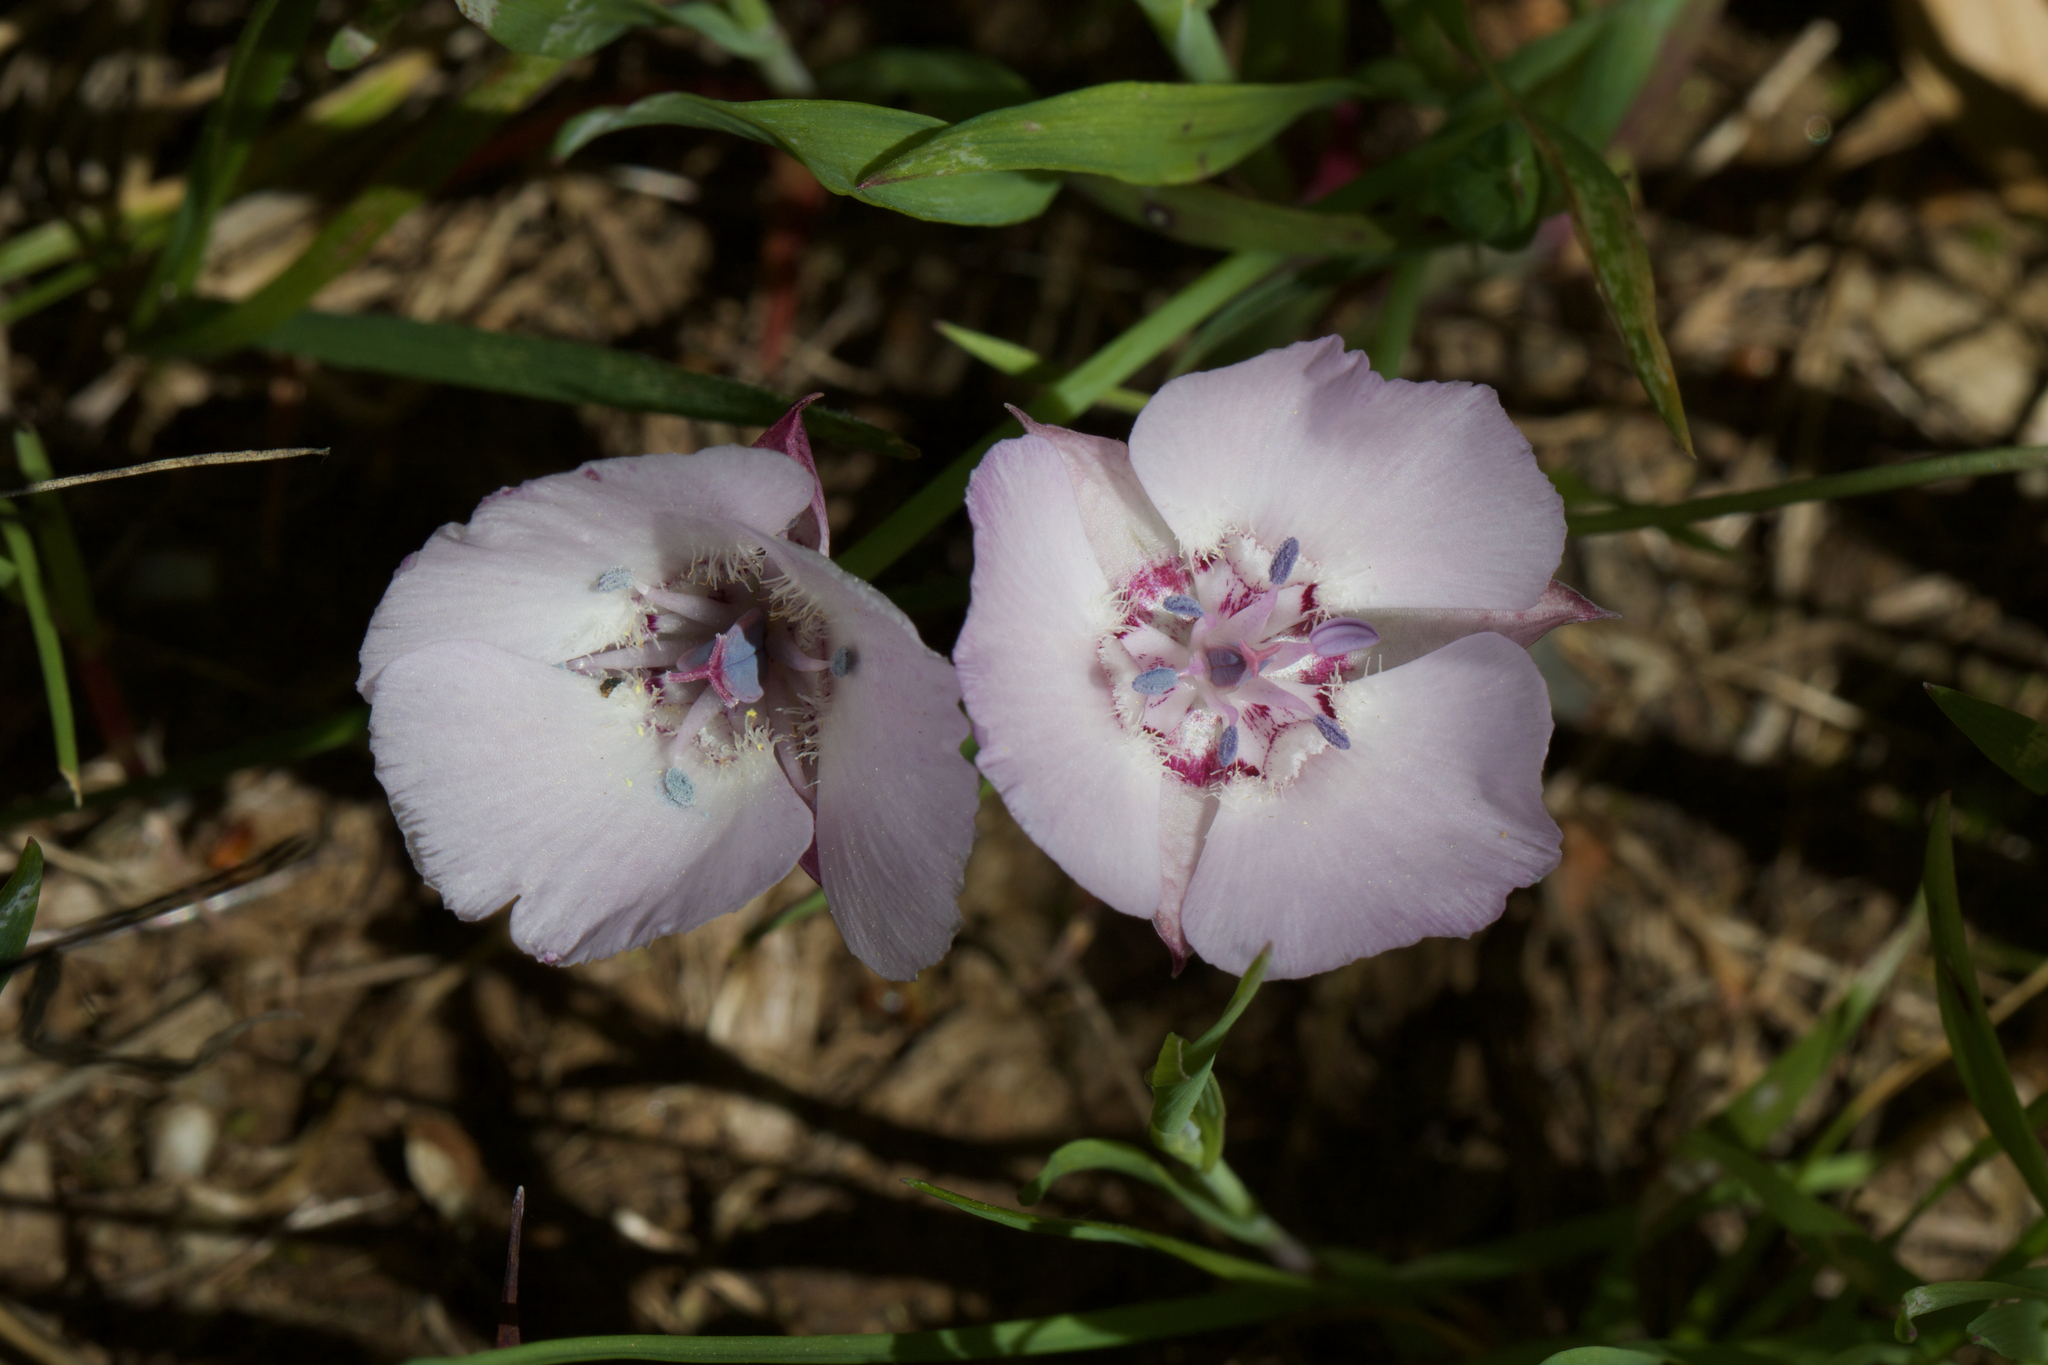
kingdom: Plantae
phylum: Tracheophyta
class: Liliopsida
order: Liliales
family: Liliaceae
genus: Calochortus
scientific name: Calochortus umbellatus
